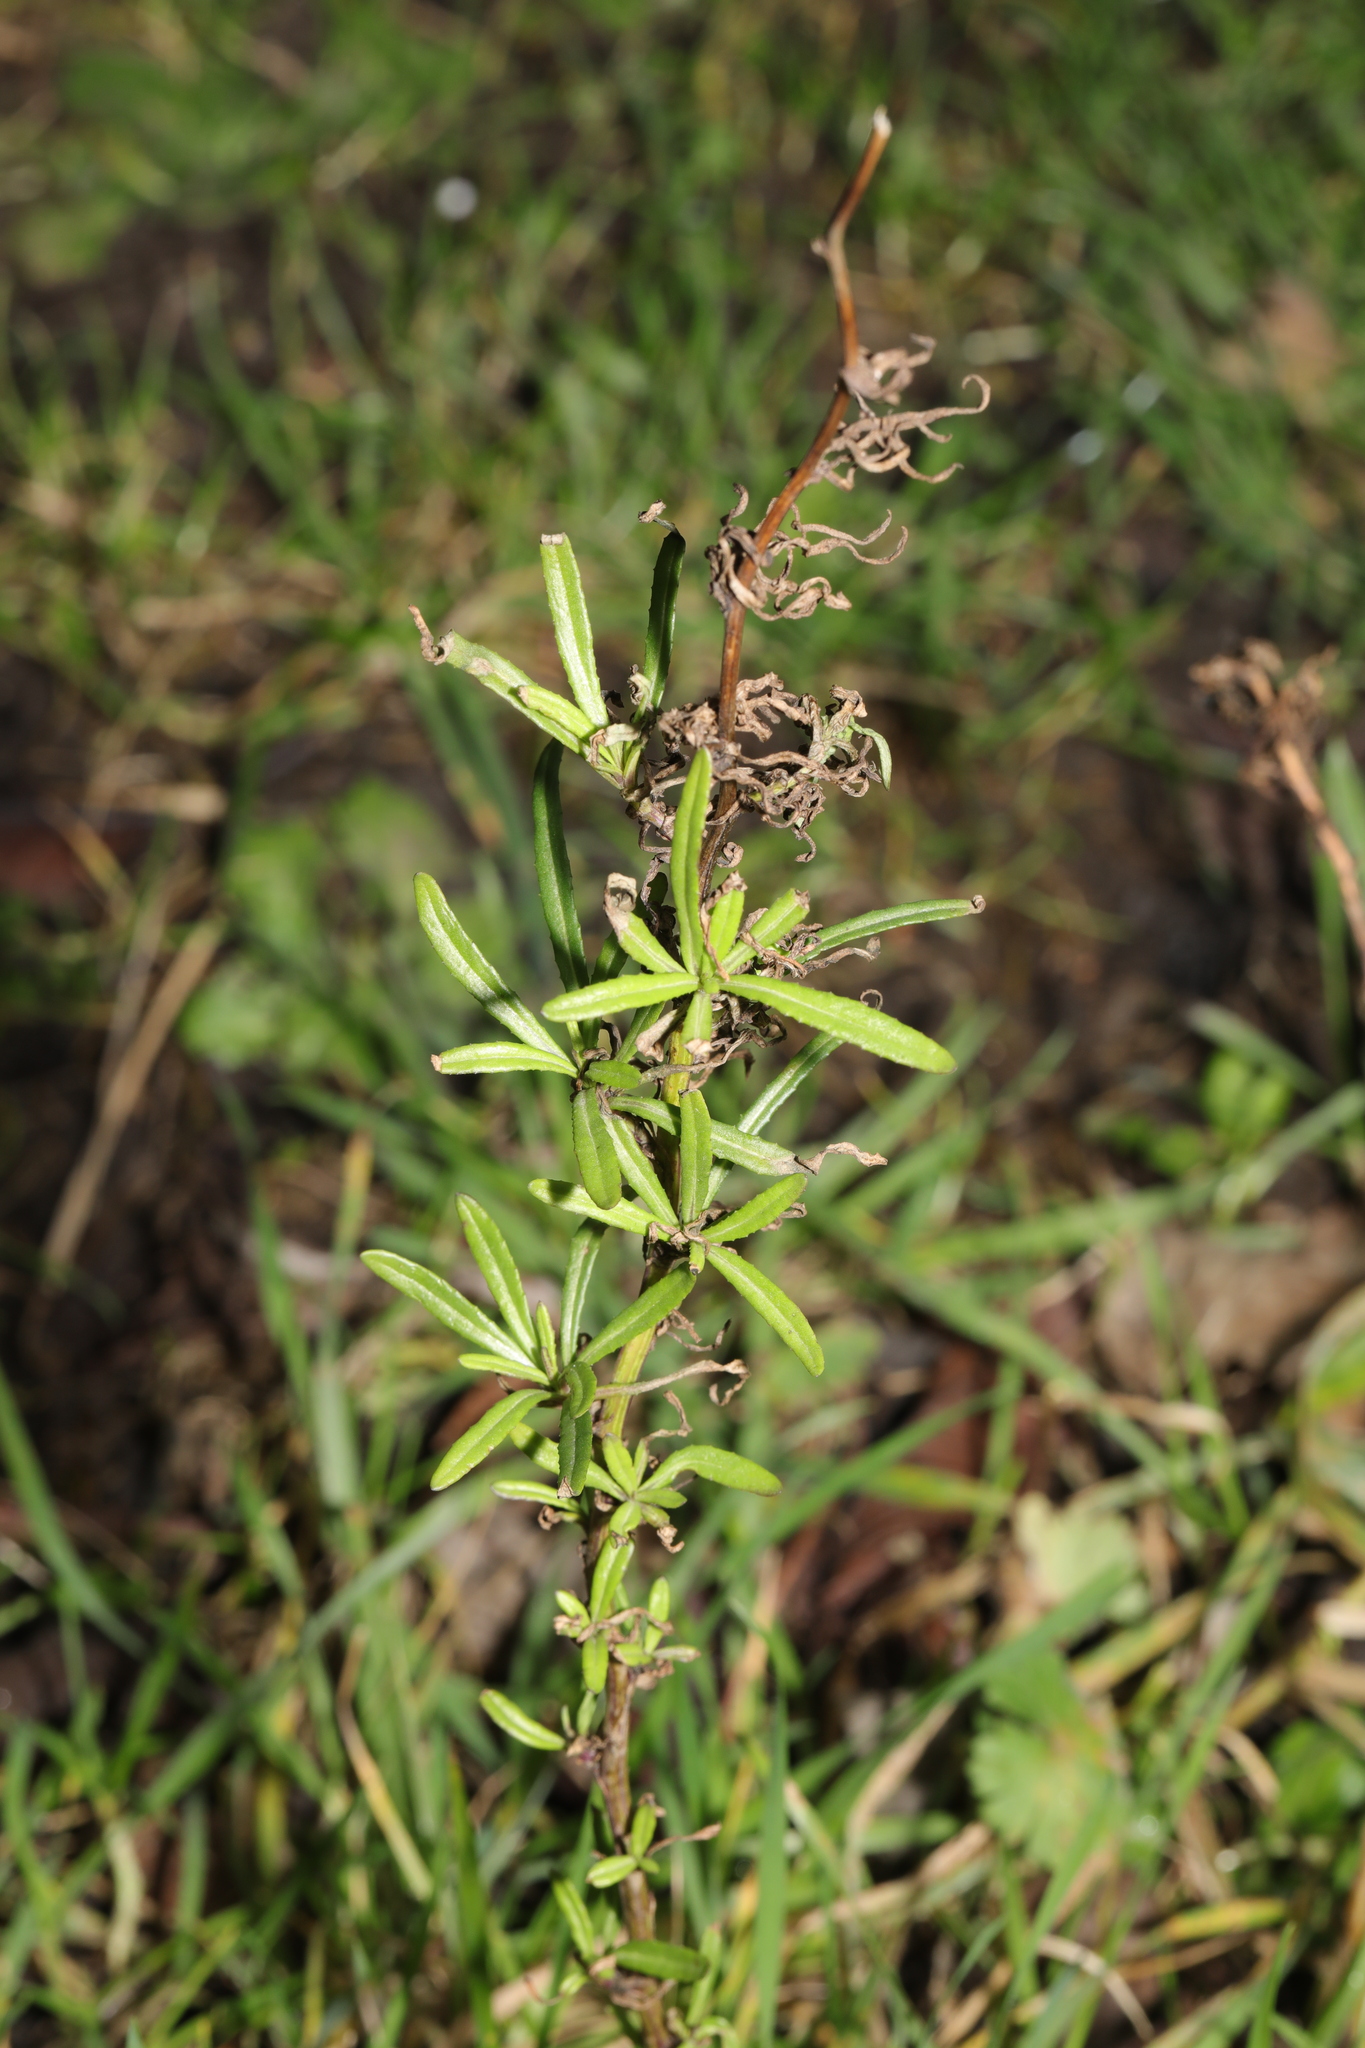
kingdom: Plantae
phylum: Tracheophyta
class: Magnoliopsida
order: Asterales
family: Asteraceae
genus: Senecio
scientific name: Senecio inaequidens
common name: Narrow-leaved ragwort
